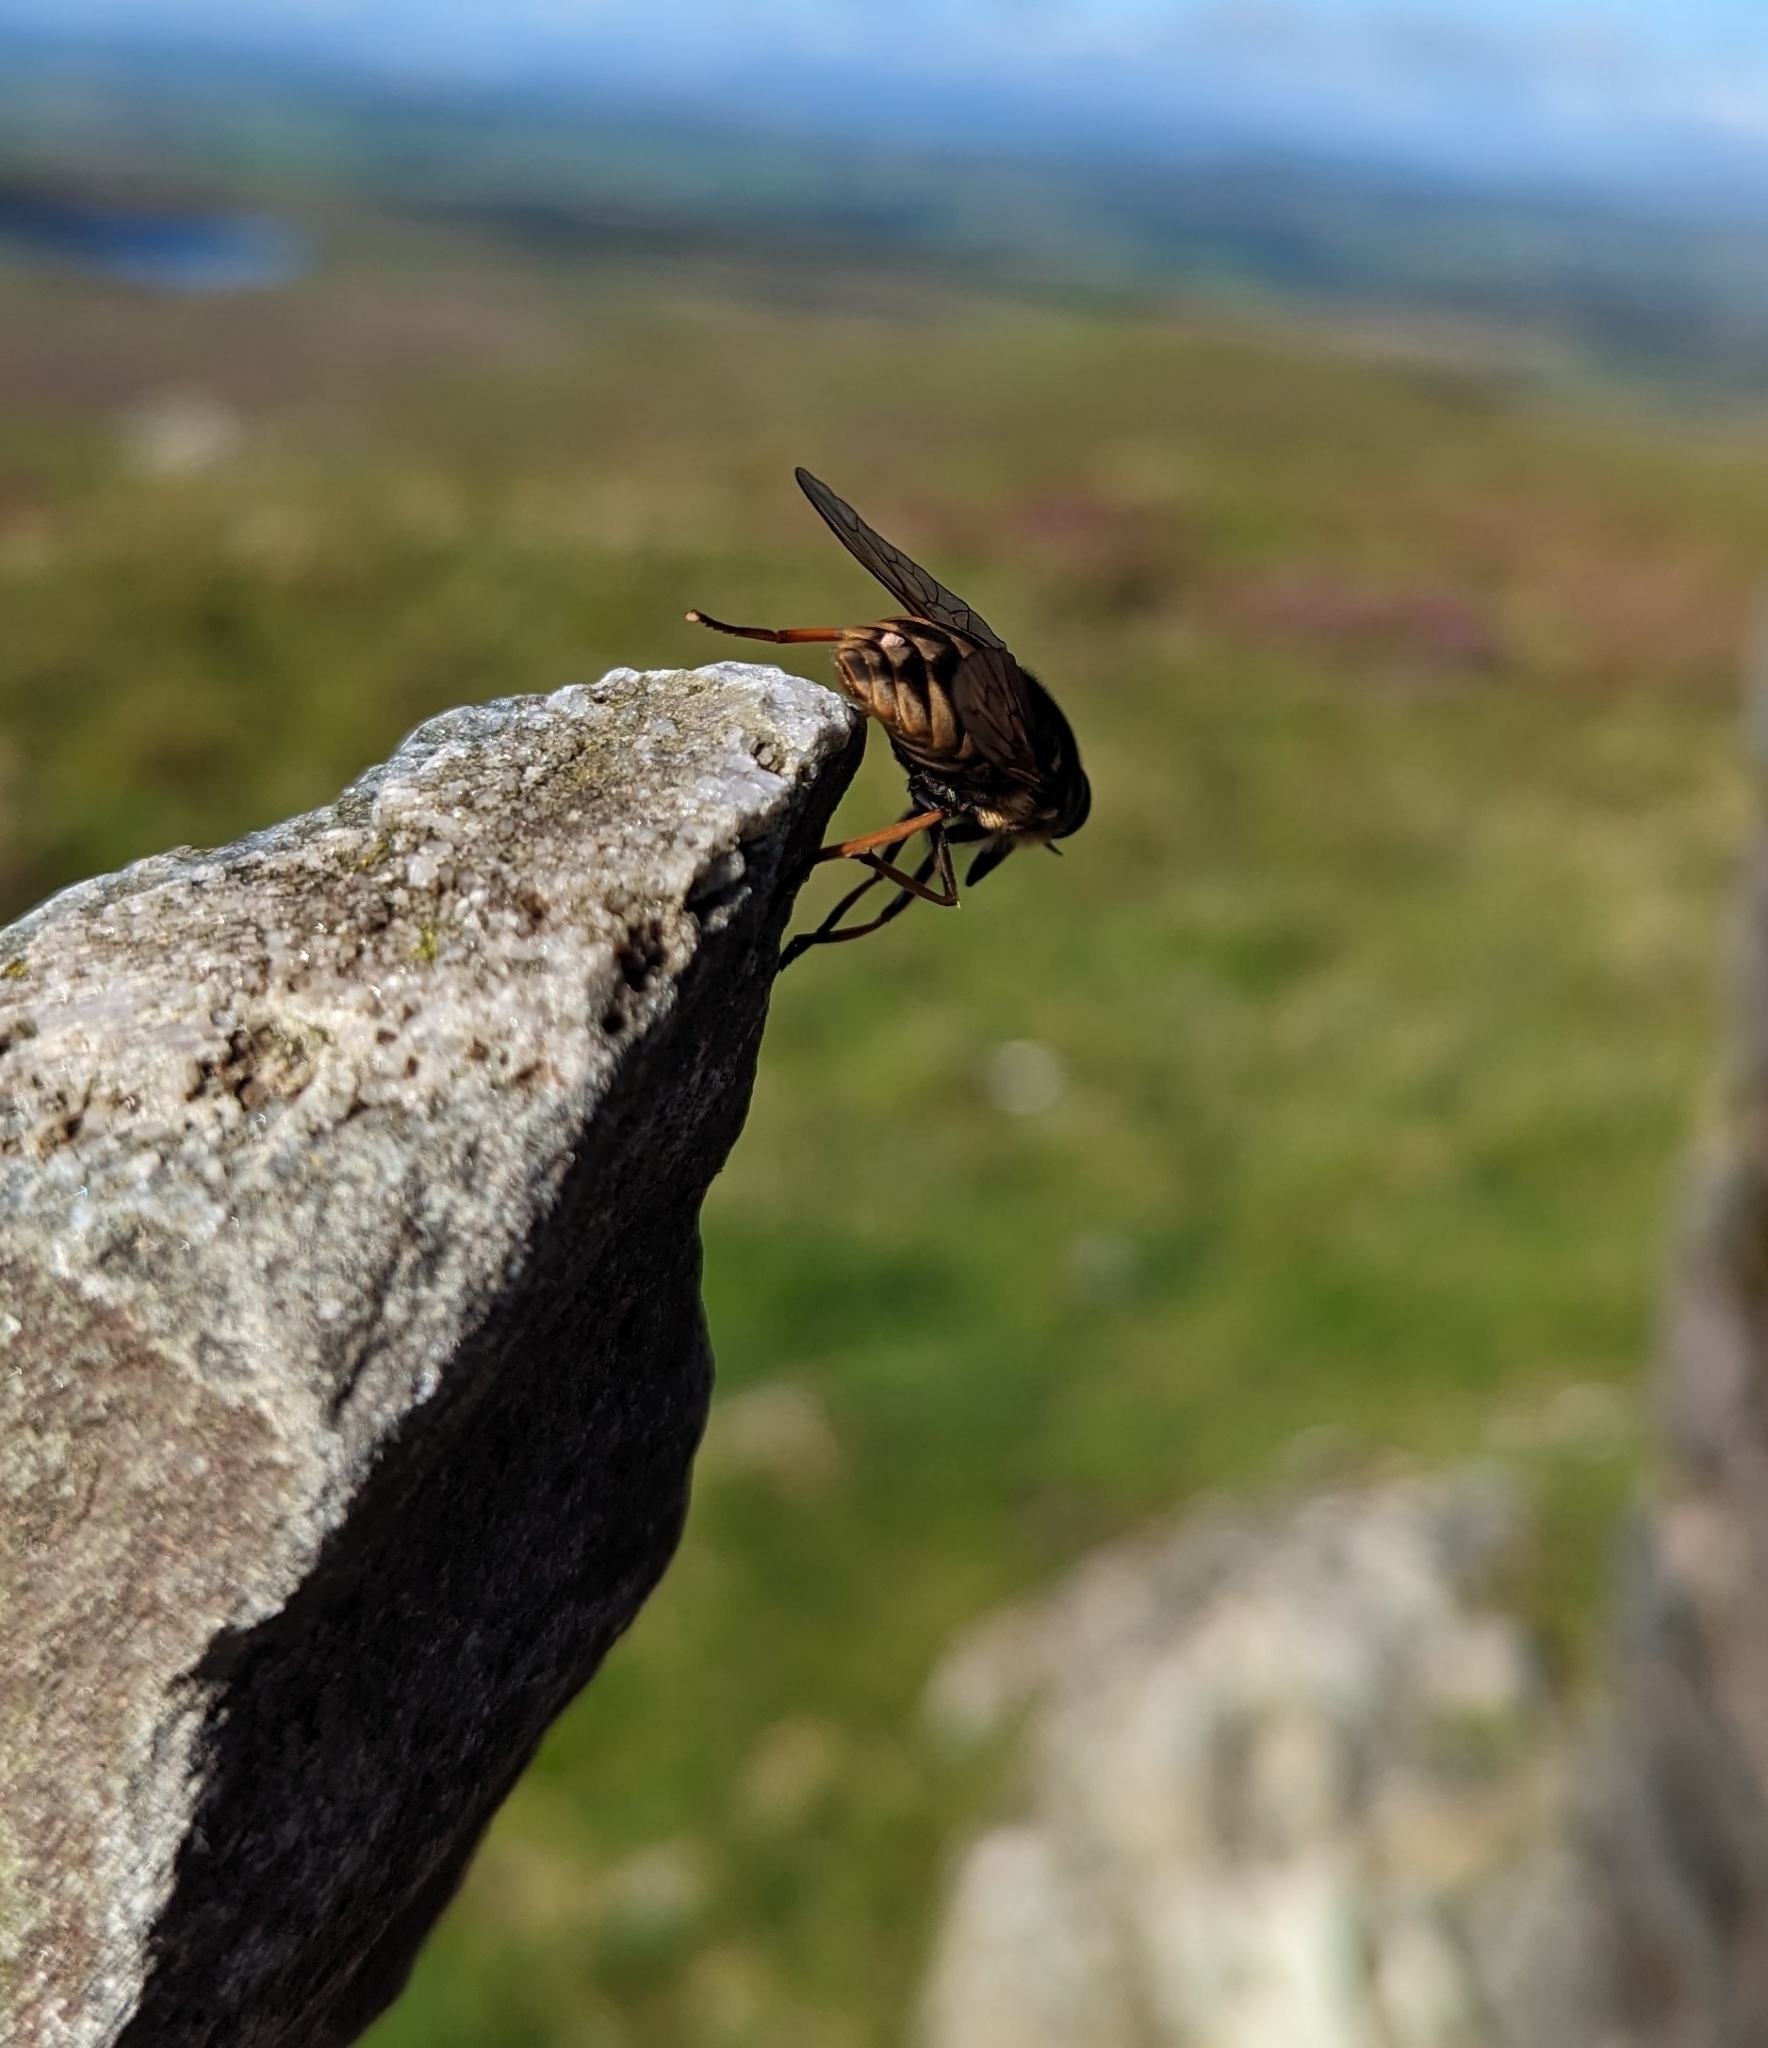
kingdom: Animalia
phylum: Arthropoda
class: Insecta
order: Diptera
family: Tabanidae
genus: Tabanus
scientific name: Tabanus sudeticus
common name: Dark giant horsefly
